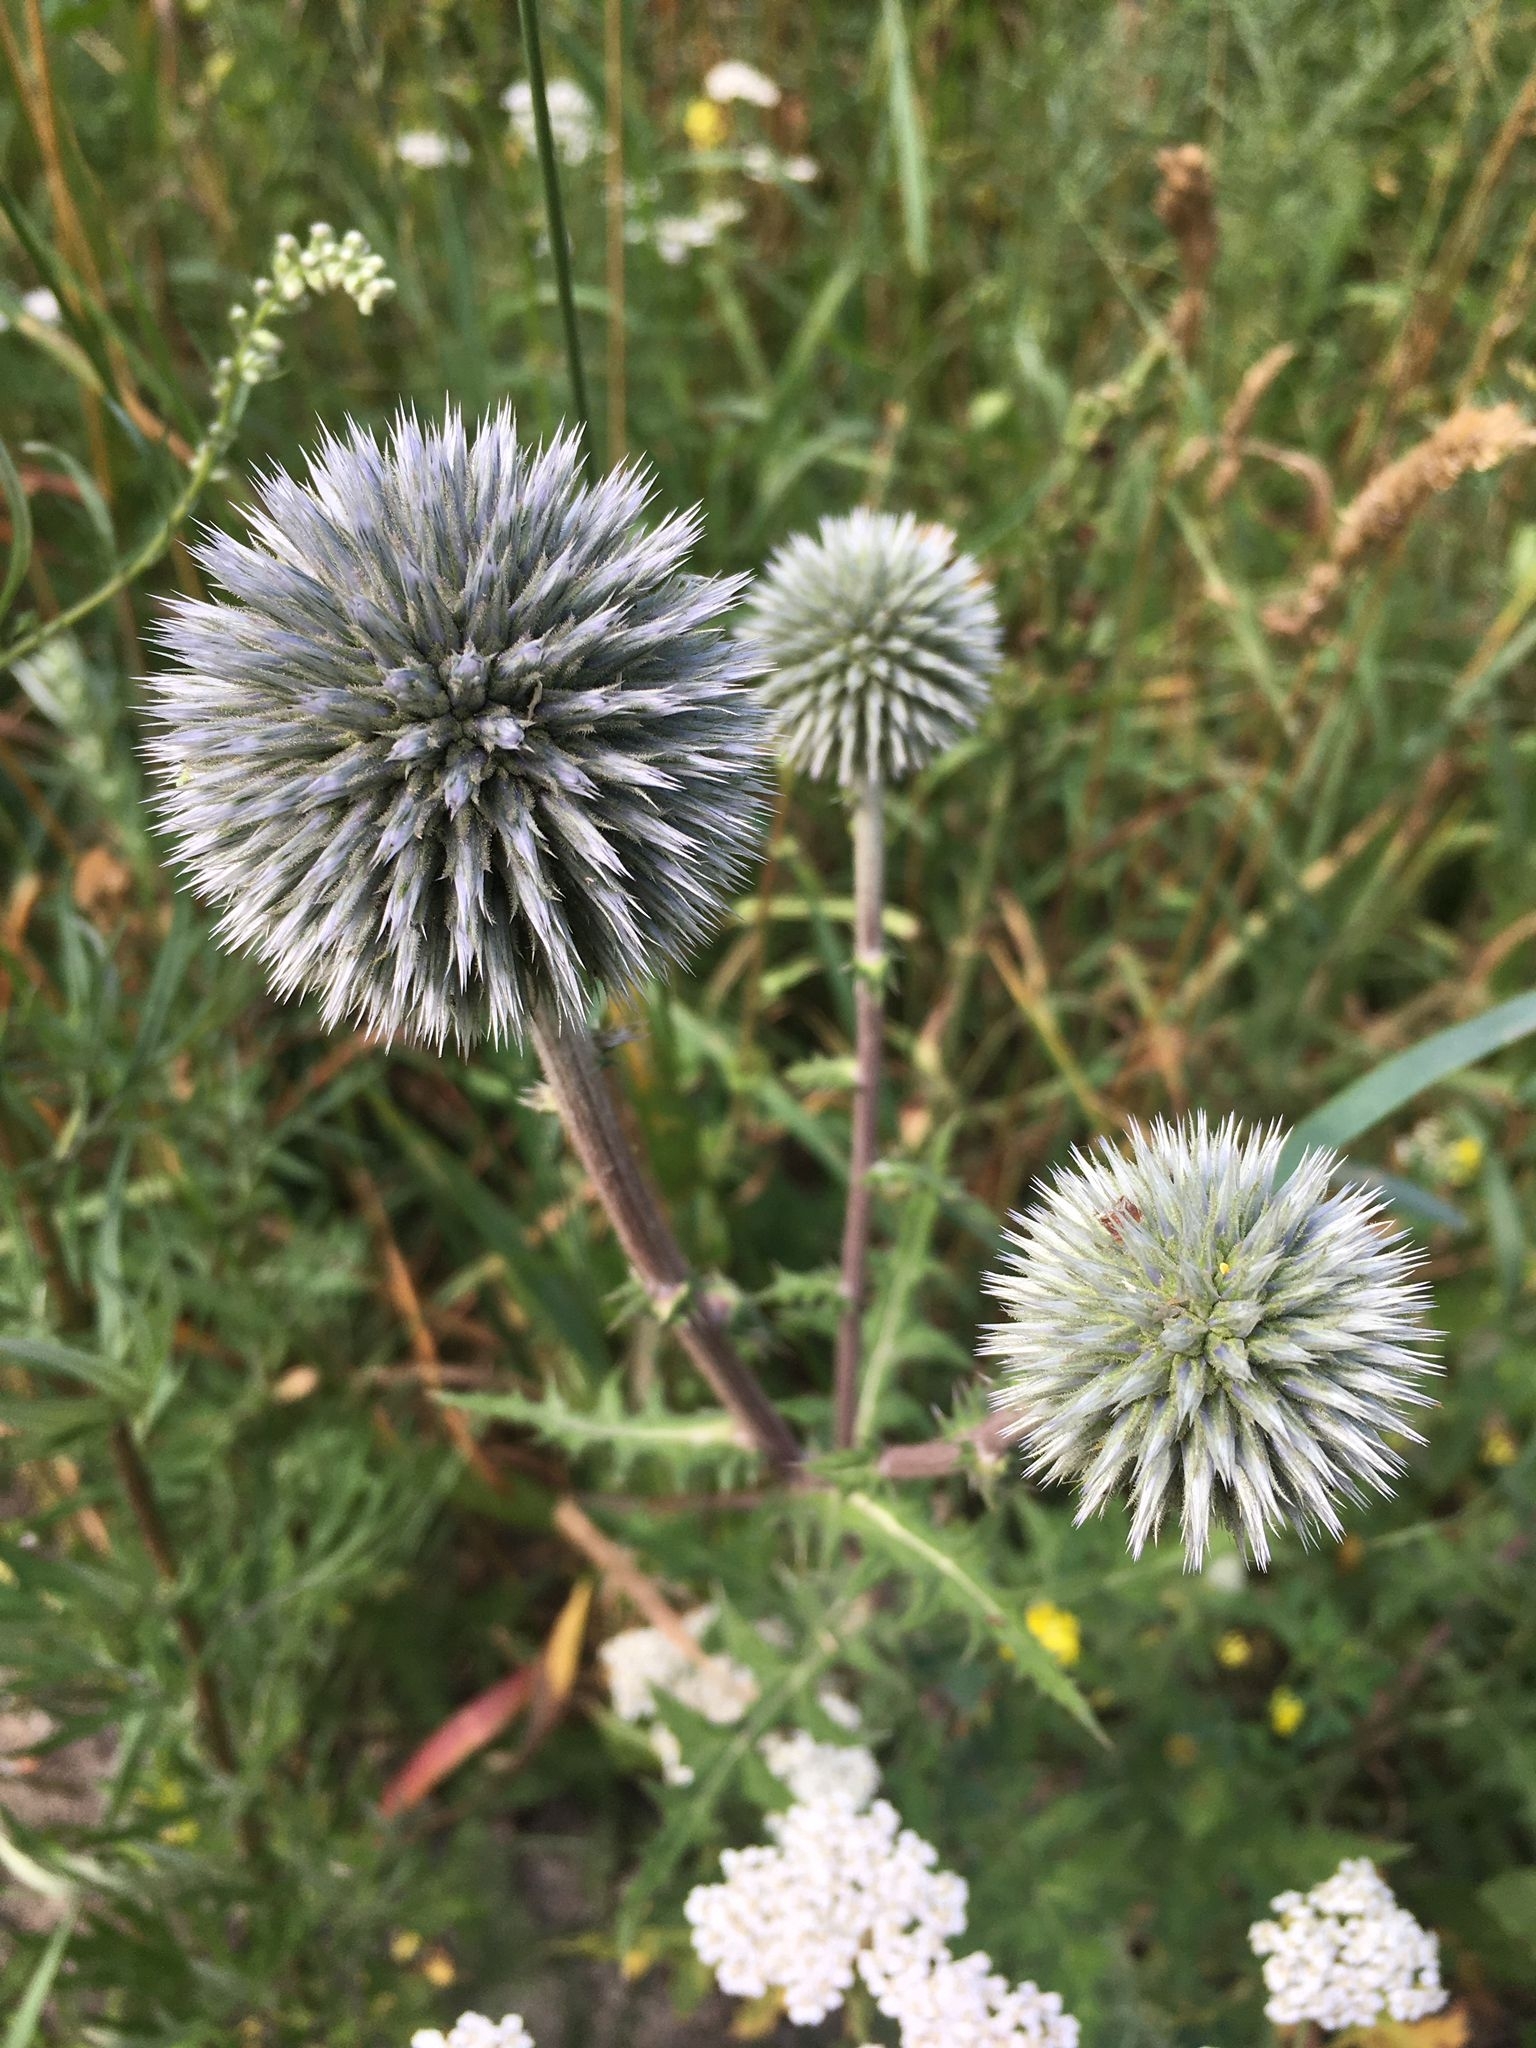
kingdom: Plantae
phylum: Tracheophyta
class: Magnoliopsida
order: Asterales
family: Asteraceae
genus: Echinops
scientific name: Echinops sphaerocephalus
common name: Glandular globe-thistle
